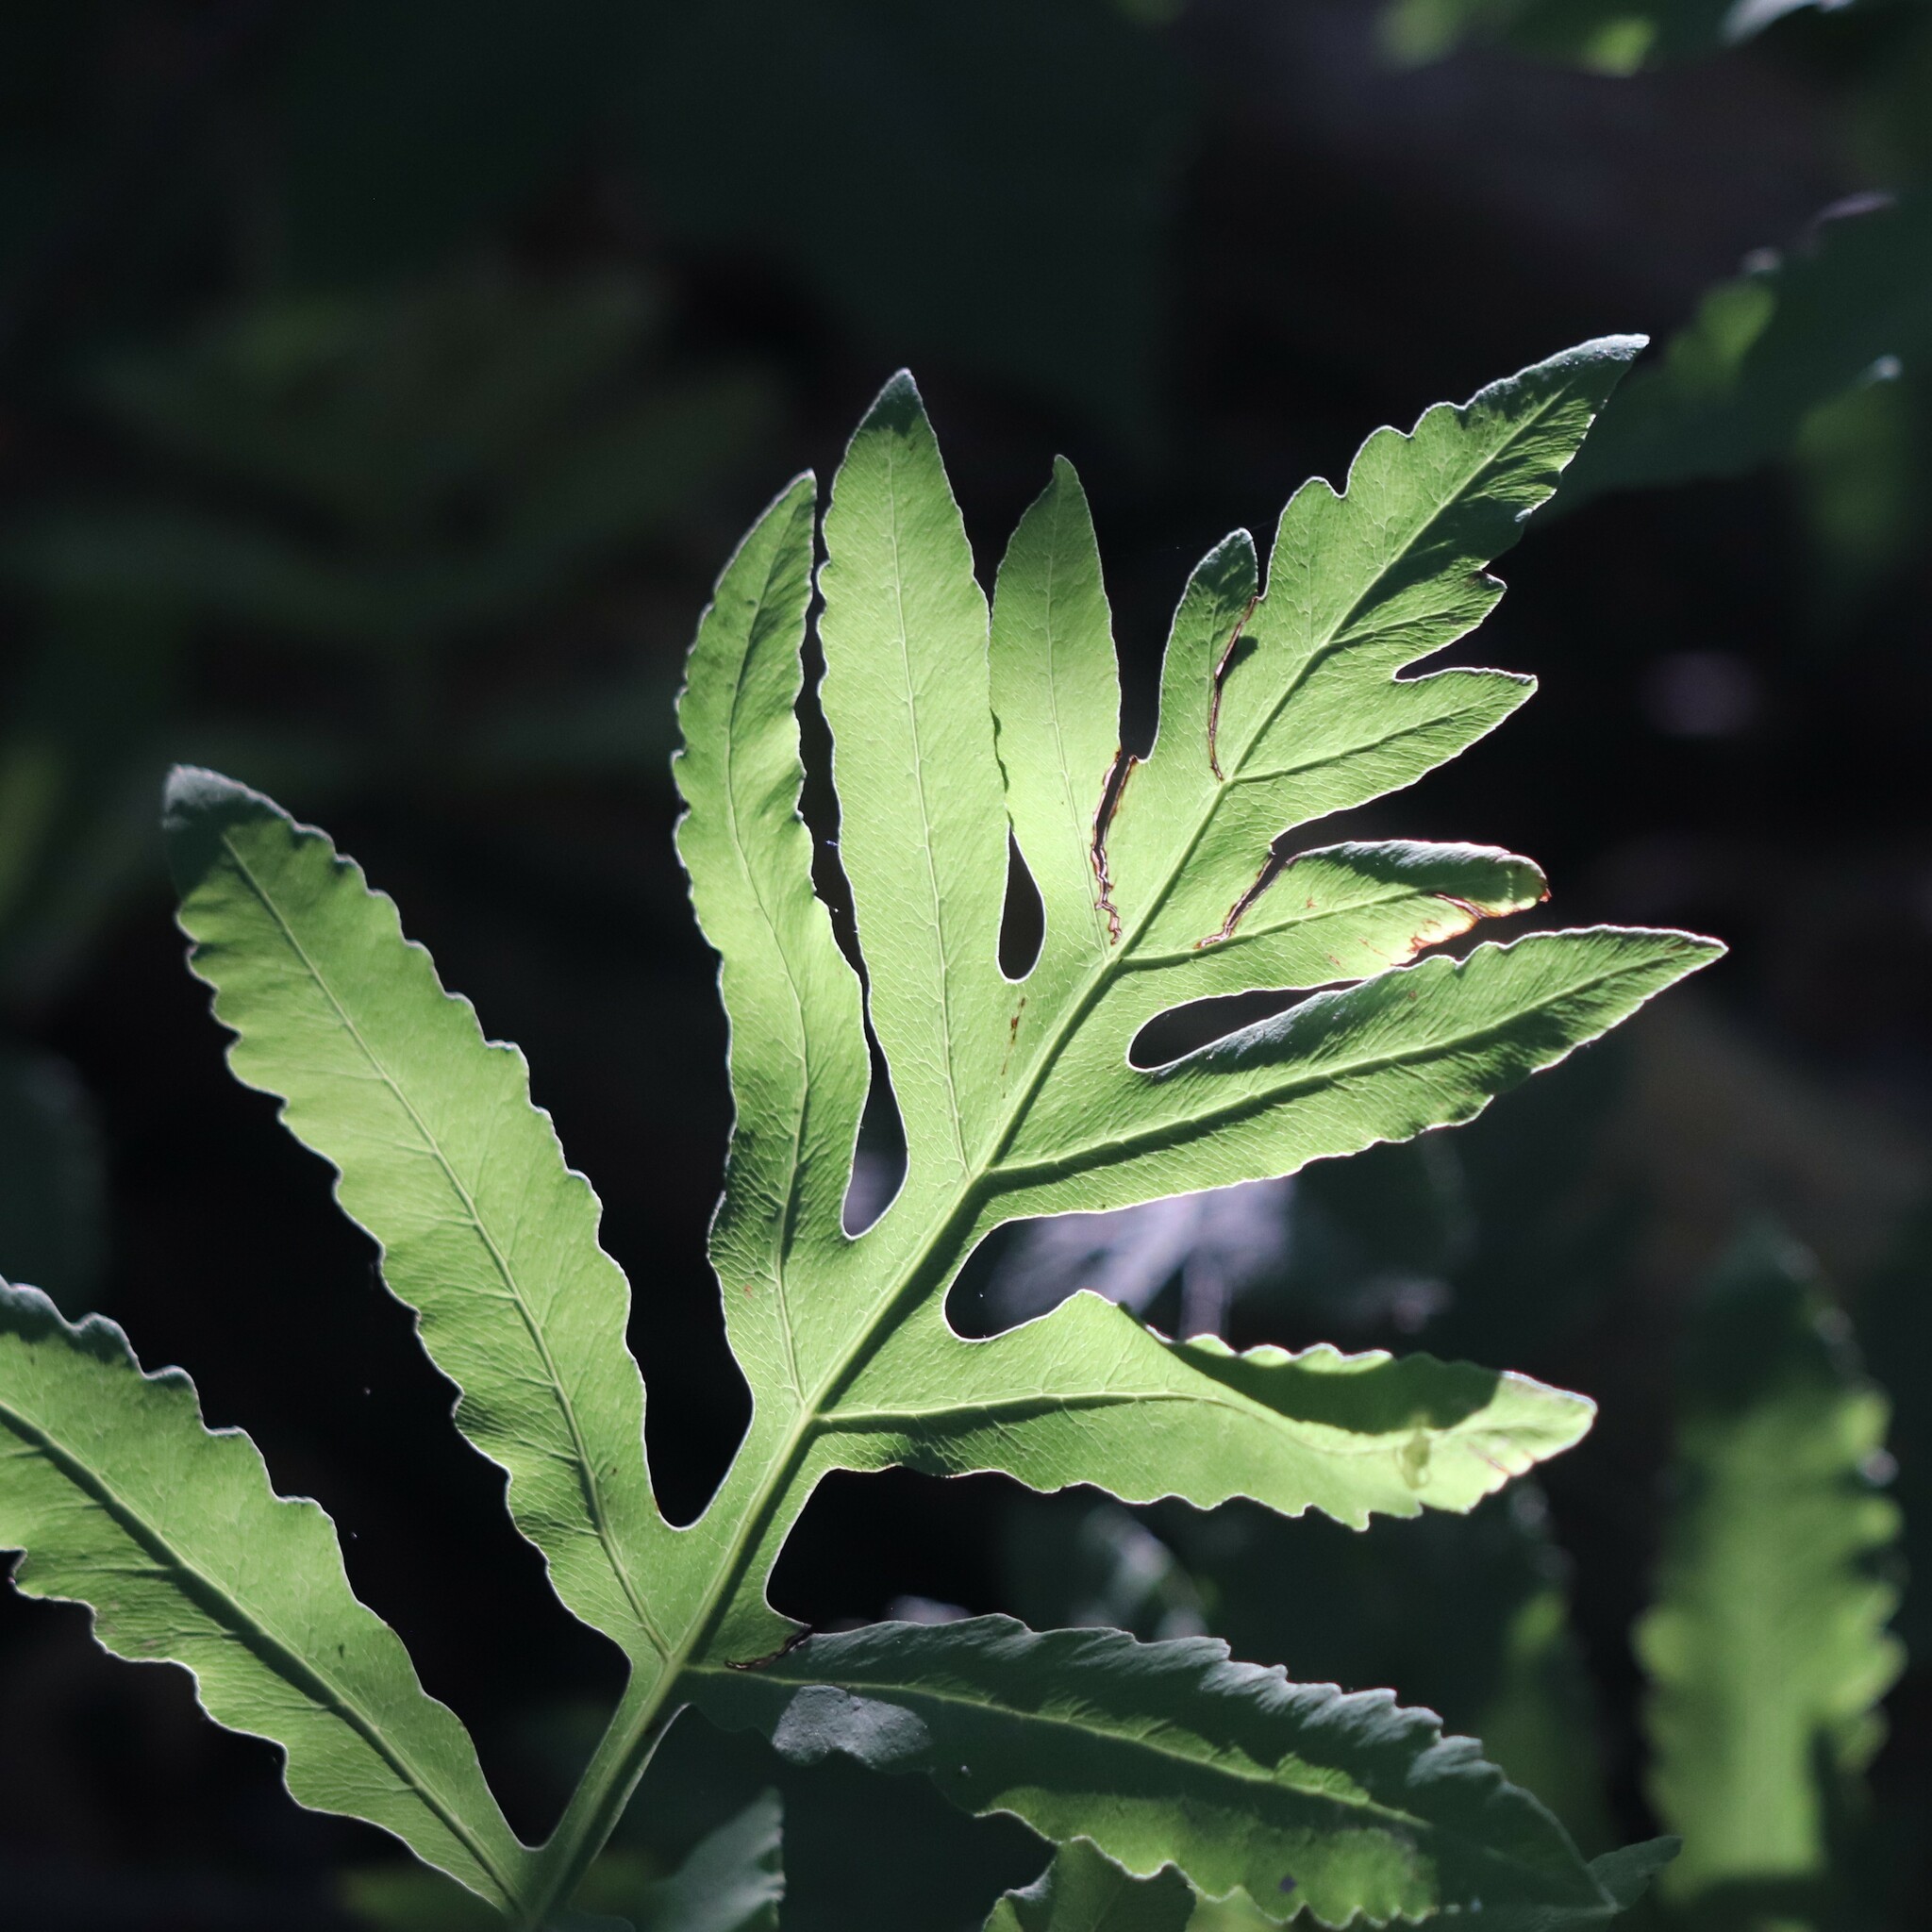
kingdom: Plantae
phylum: Tracheophyta
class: Polypodiopsida
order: Polypodiales
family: Onocleaceae
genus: Onoclea
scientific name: Onoclea sensibilis
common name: Sensitive fern
